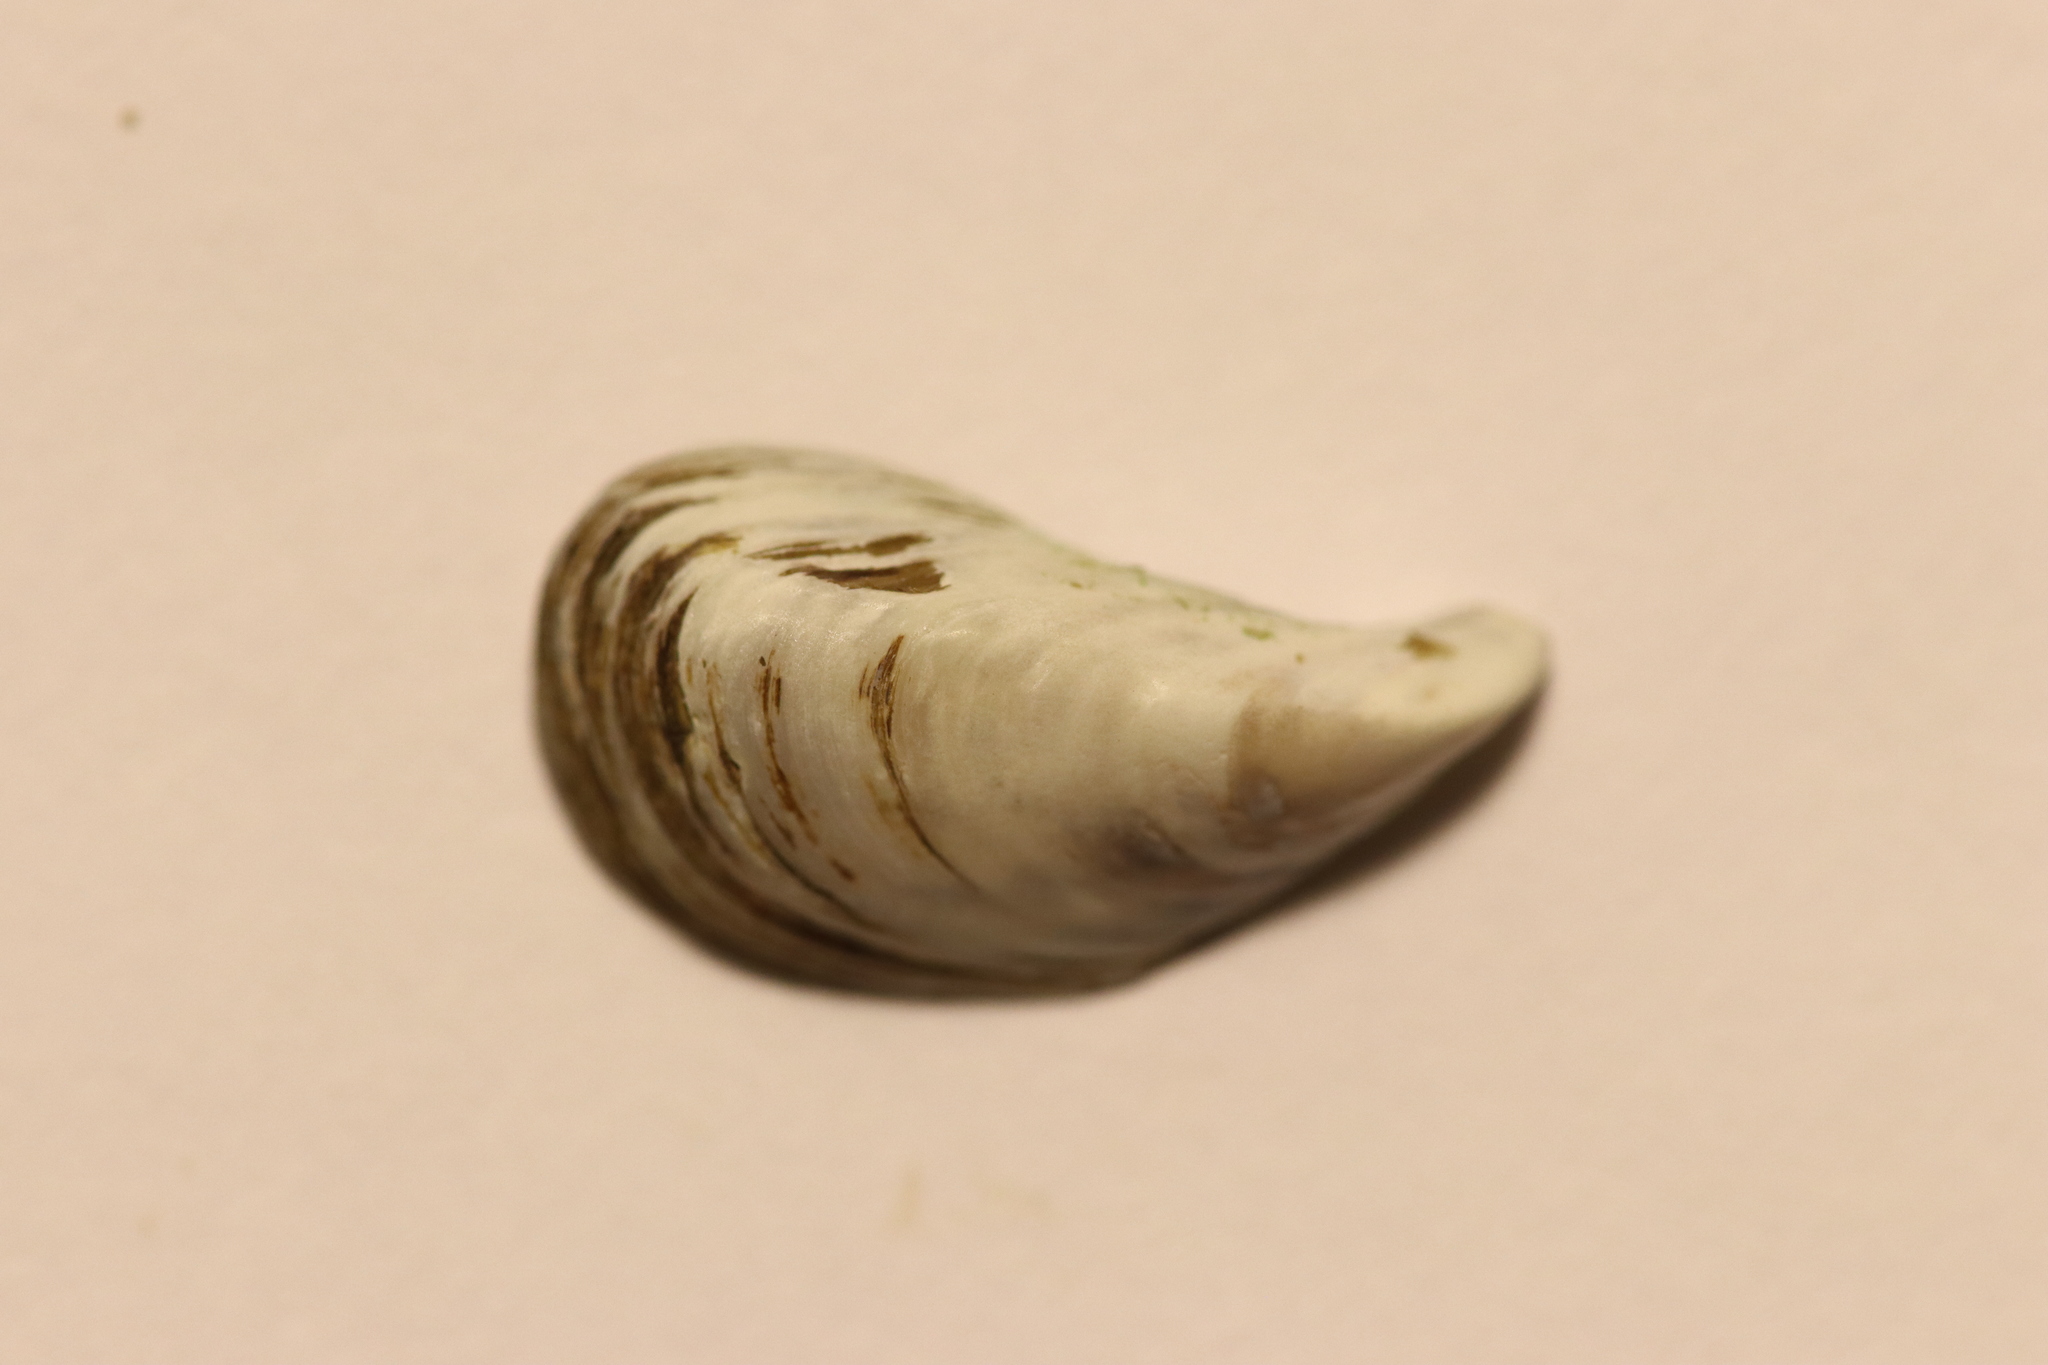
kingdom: Animalia
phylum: Mollusca
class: Bivalvia
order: Myida
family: Dreissenidae
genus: Dreissena
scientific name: Dreissena polymorpha
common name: Zebra mussel
